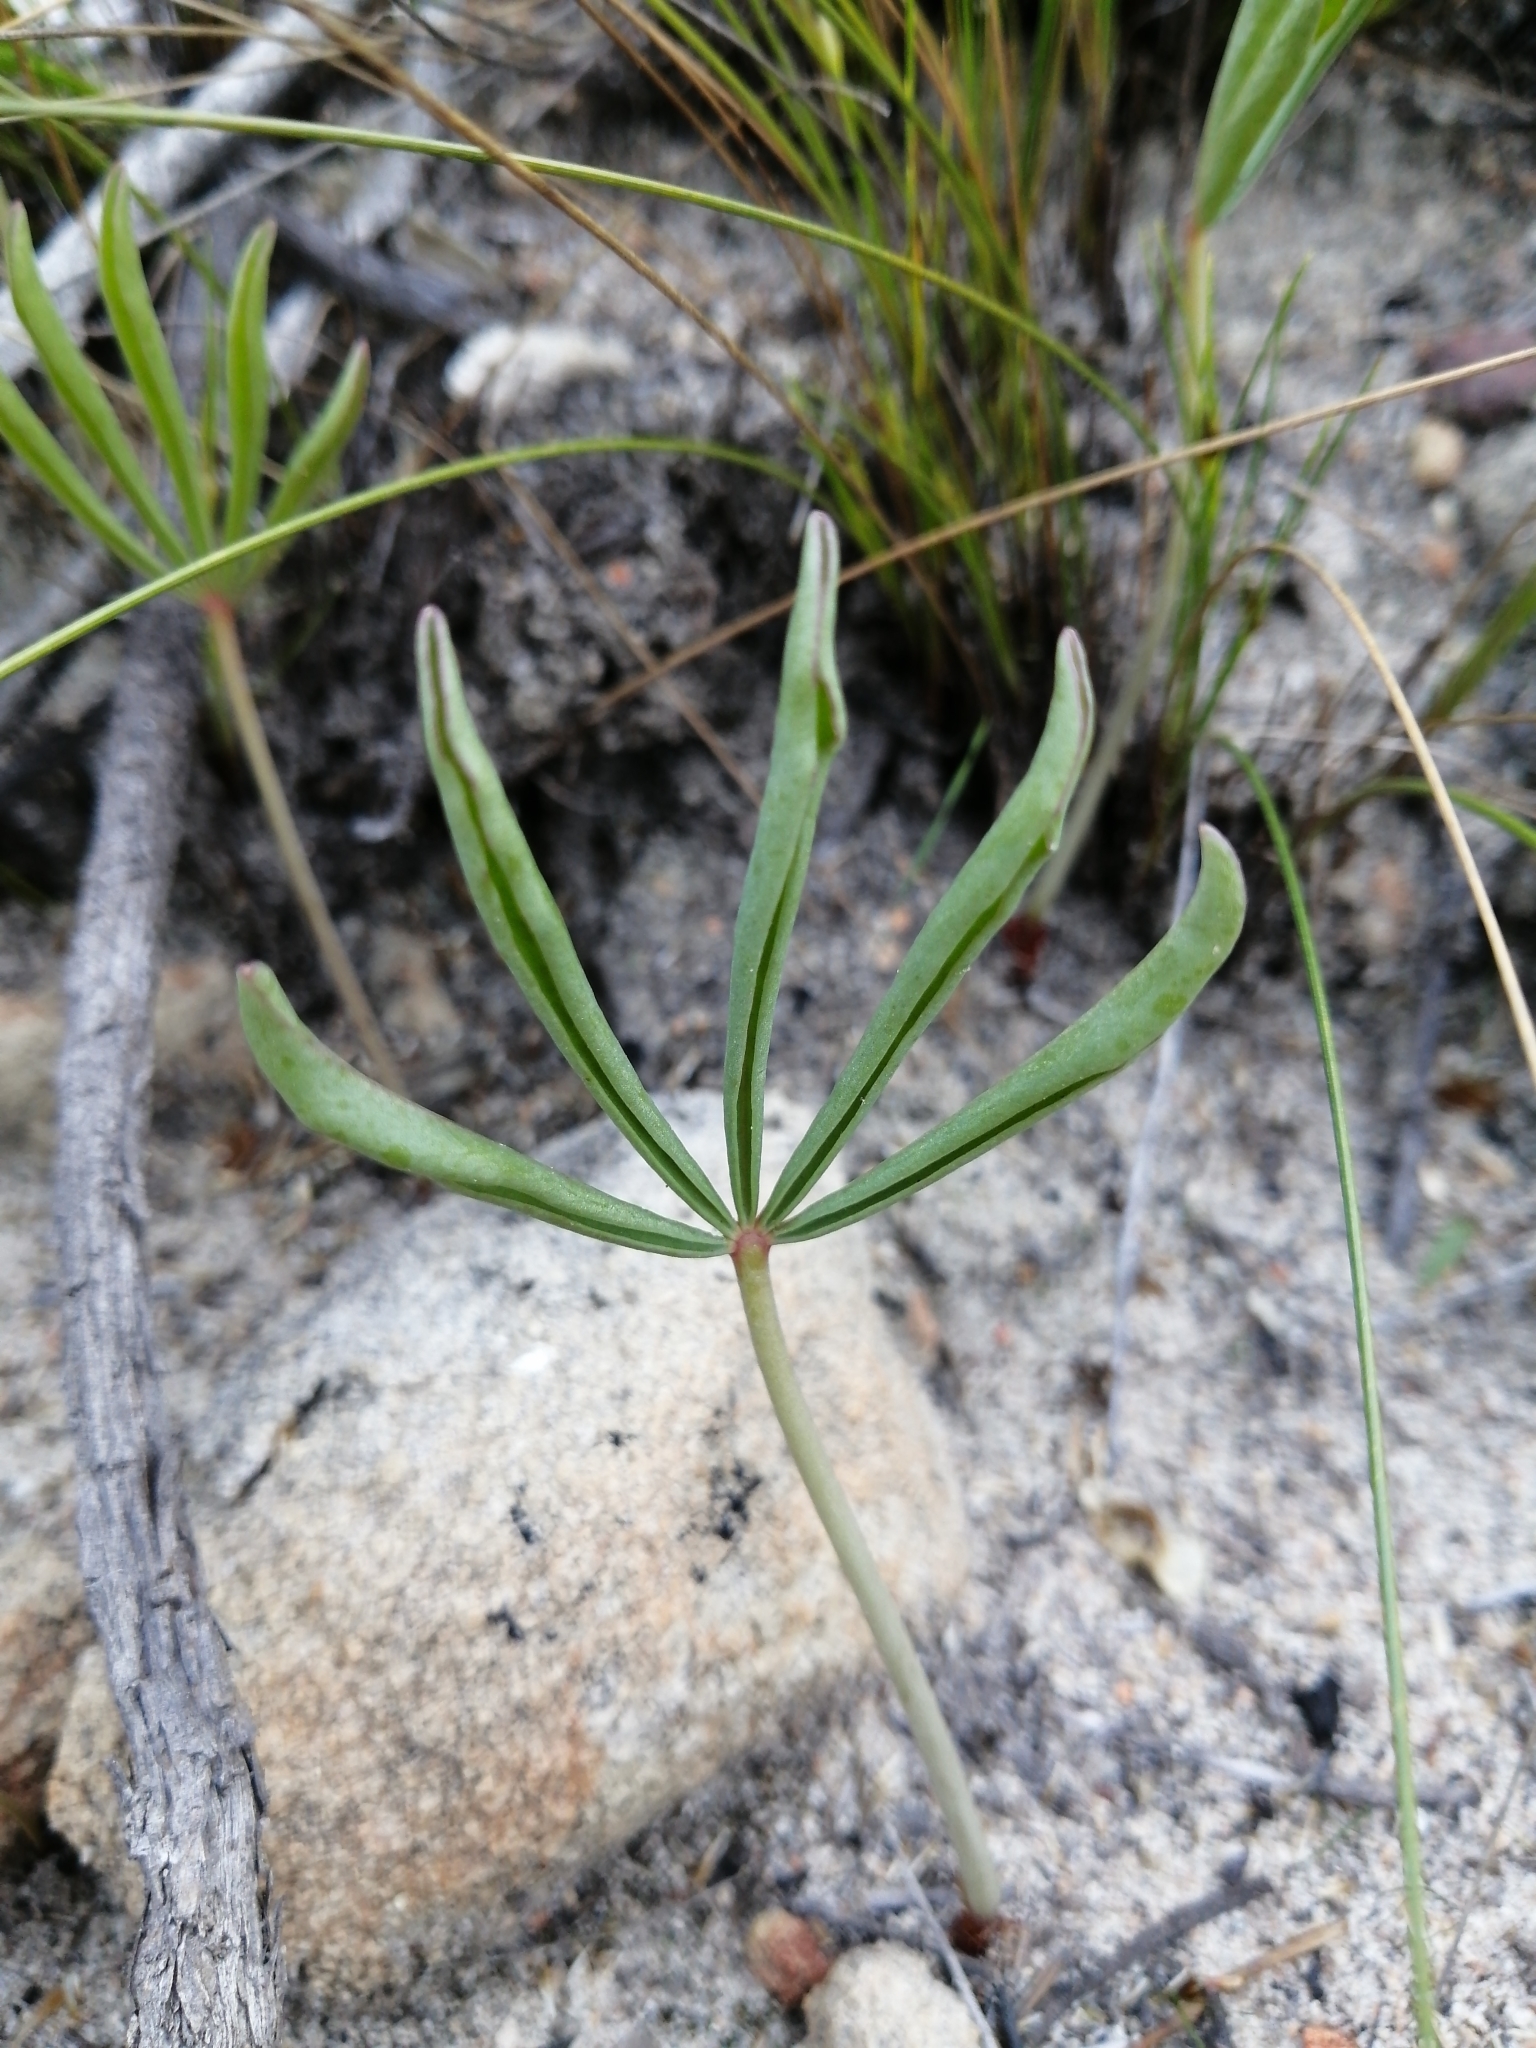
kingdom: Plantae
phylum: Tracheophyta
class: Magnoliopsida
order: Oxalidales
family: Oxalidaceae
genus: Oxalis
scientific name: Oxalis flava
